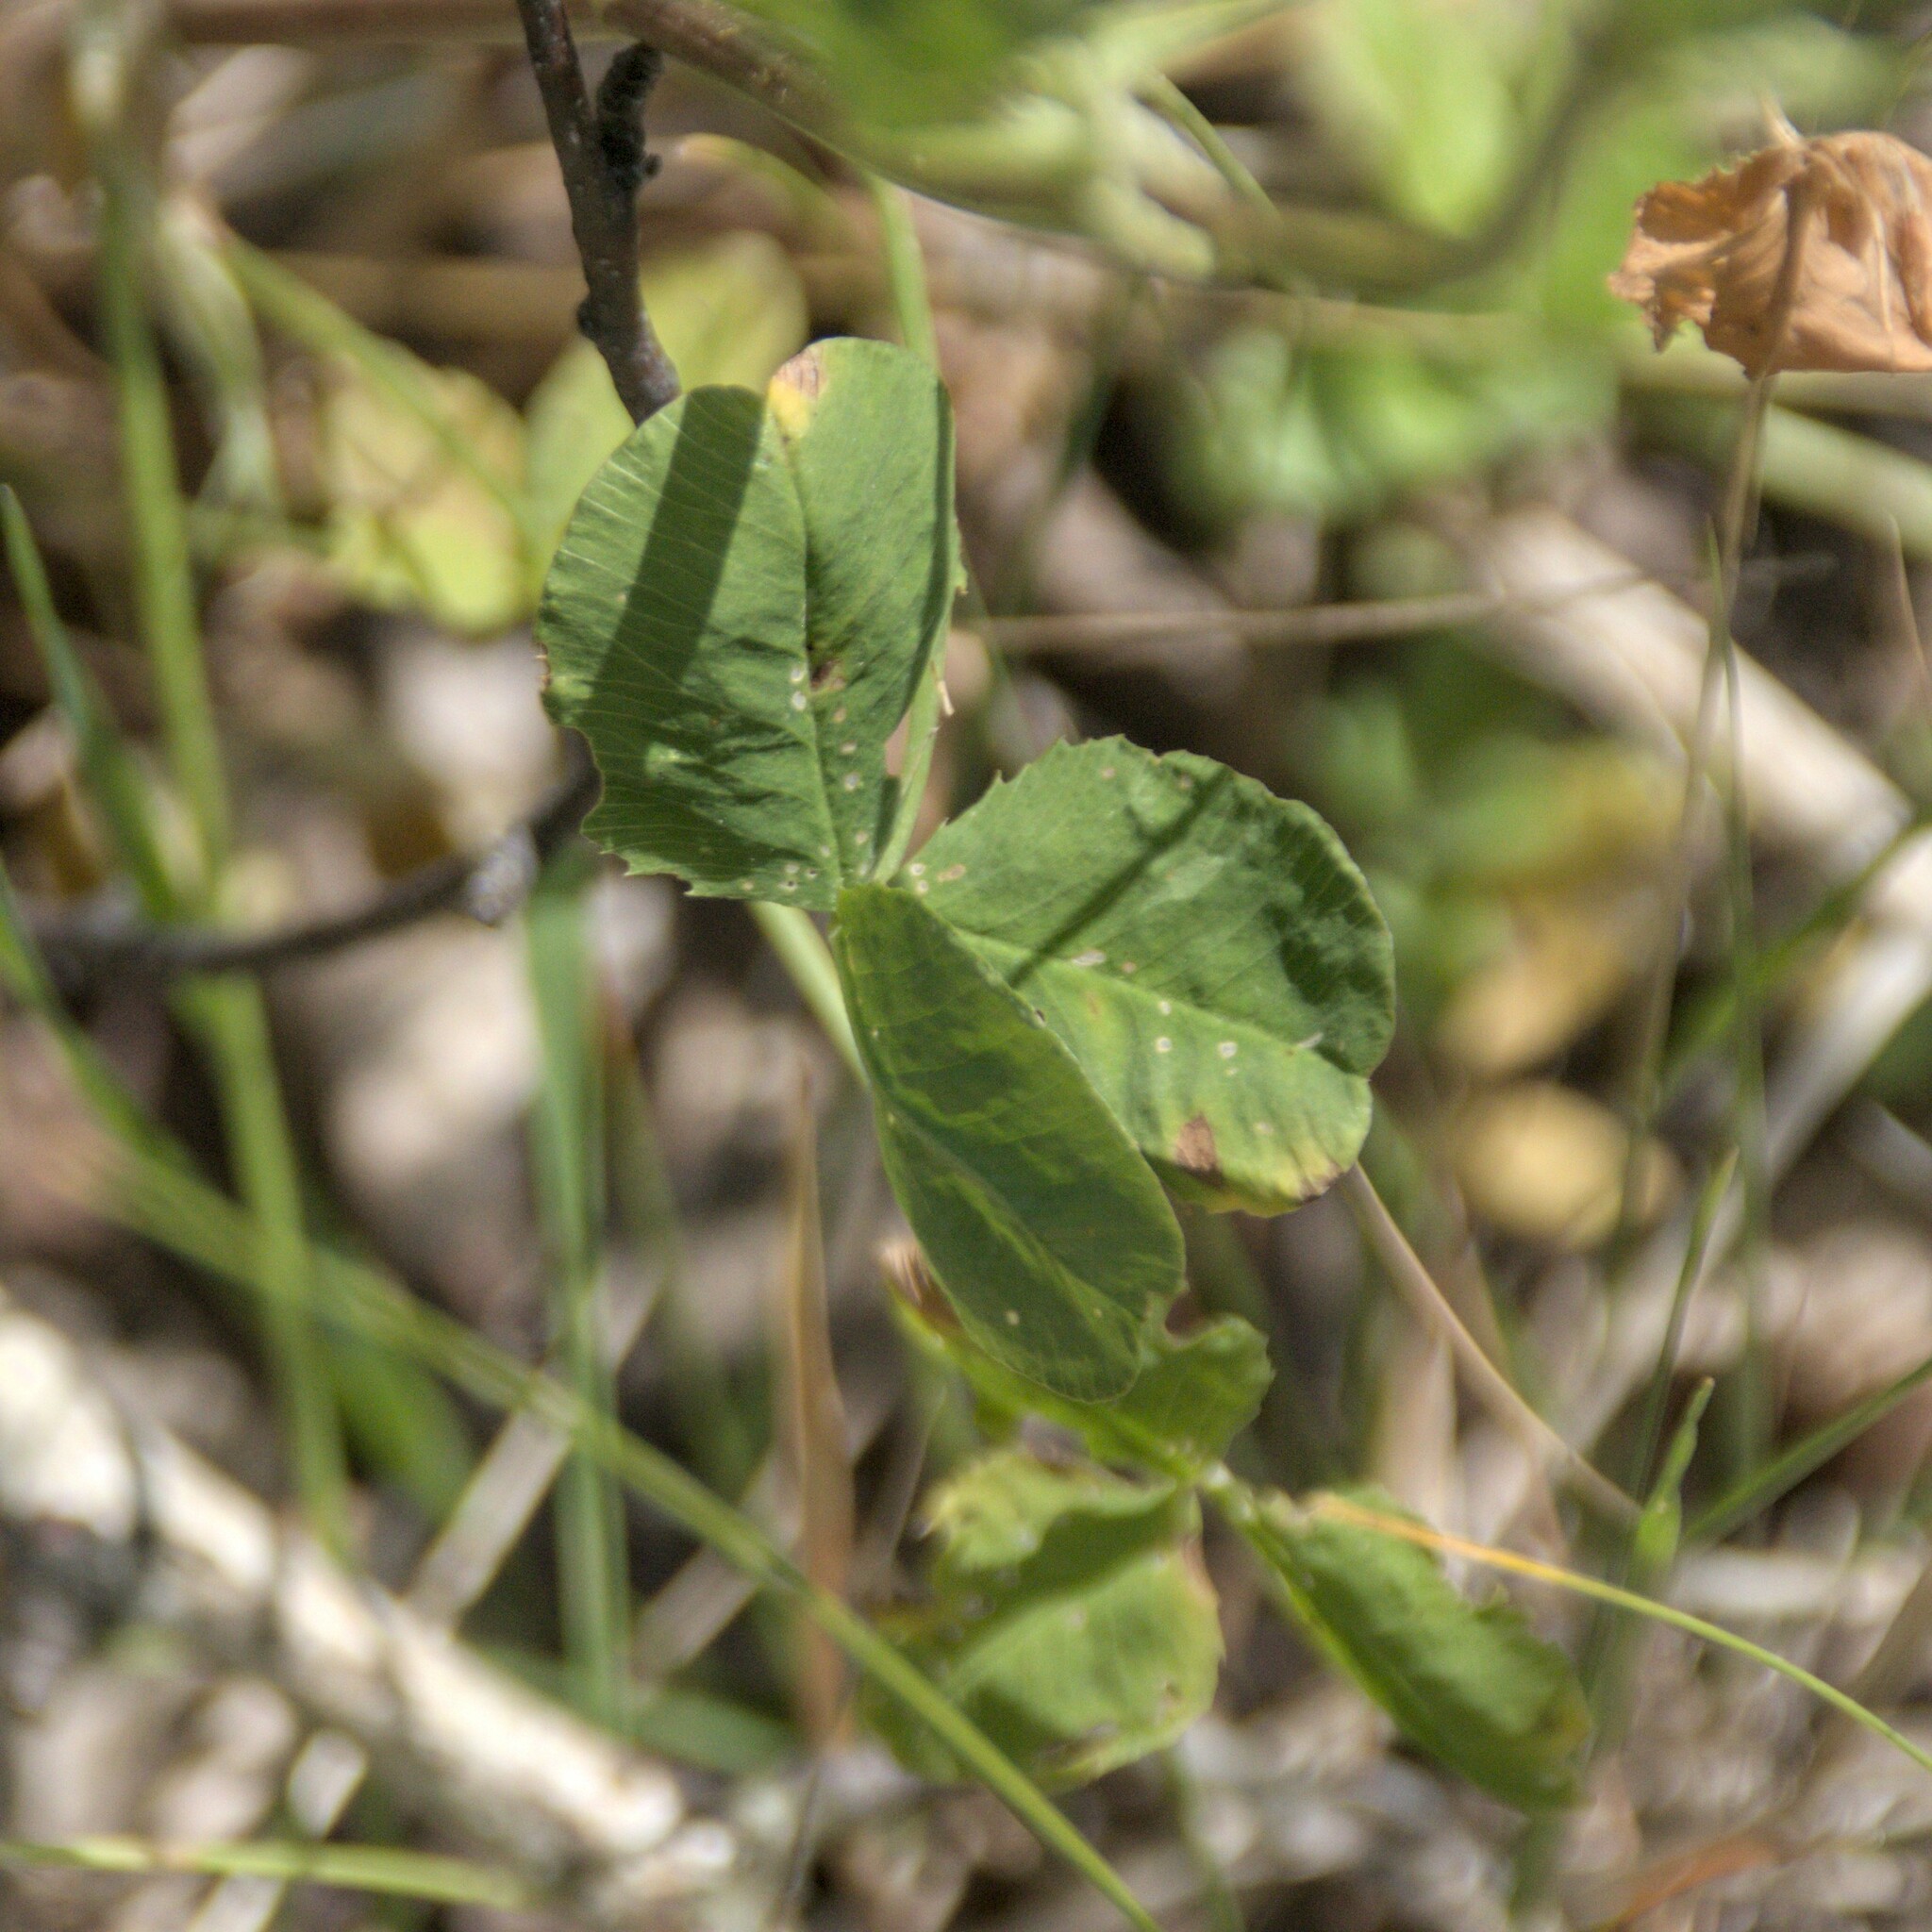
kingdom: Plantae
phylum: Tracheophyta
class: Magnoliopsida
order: Fabales
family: Fabaceae
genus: Trifolium
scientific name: Trifolium hybridum
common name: Alsike clover
